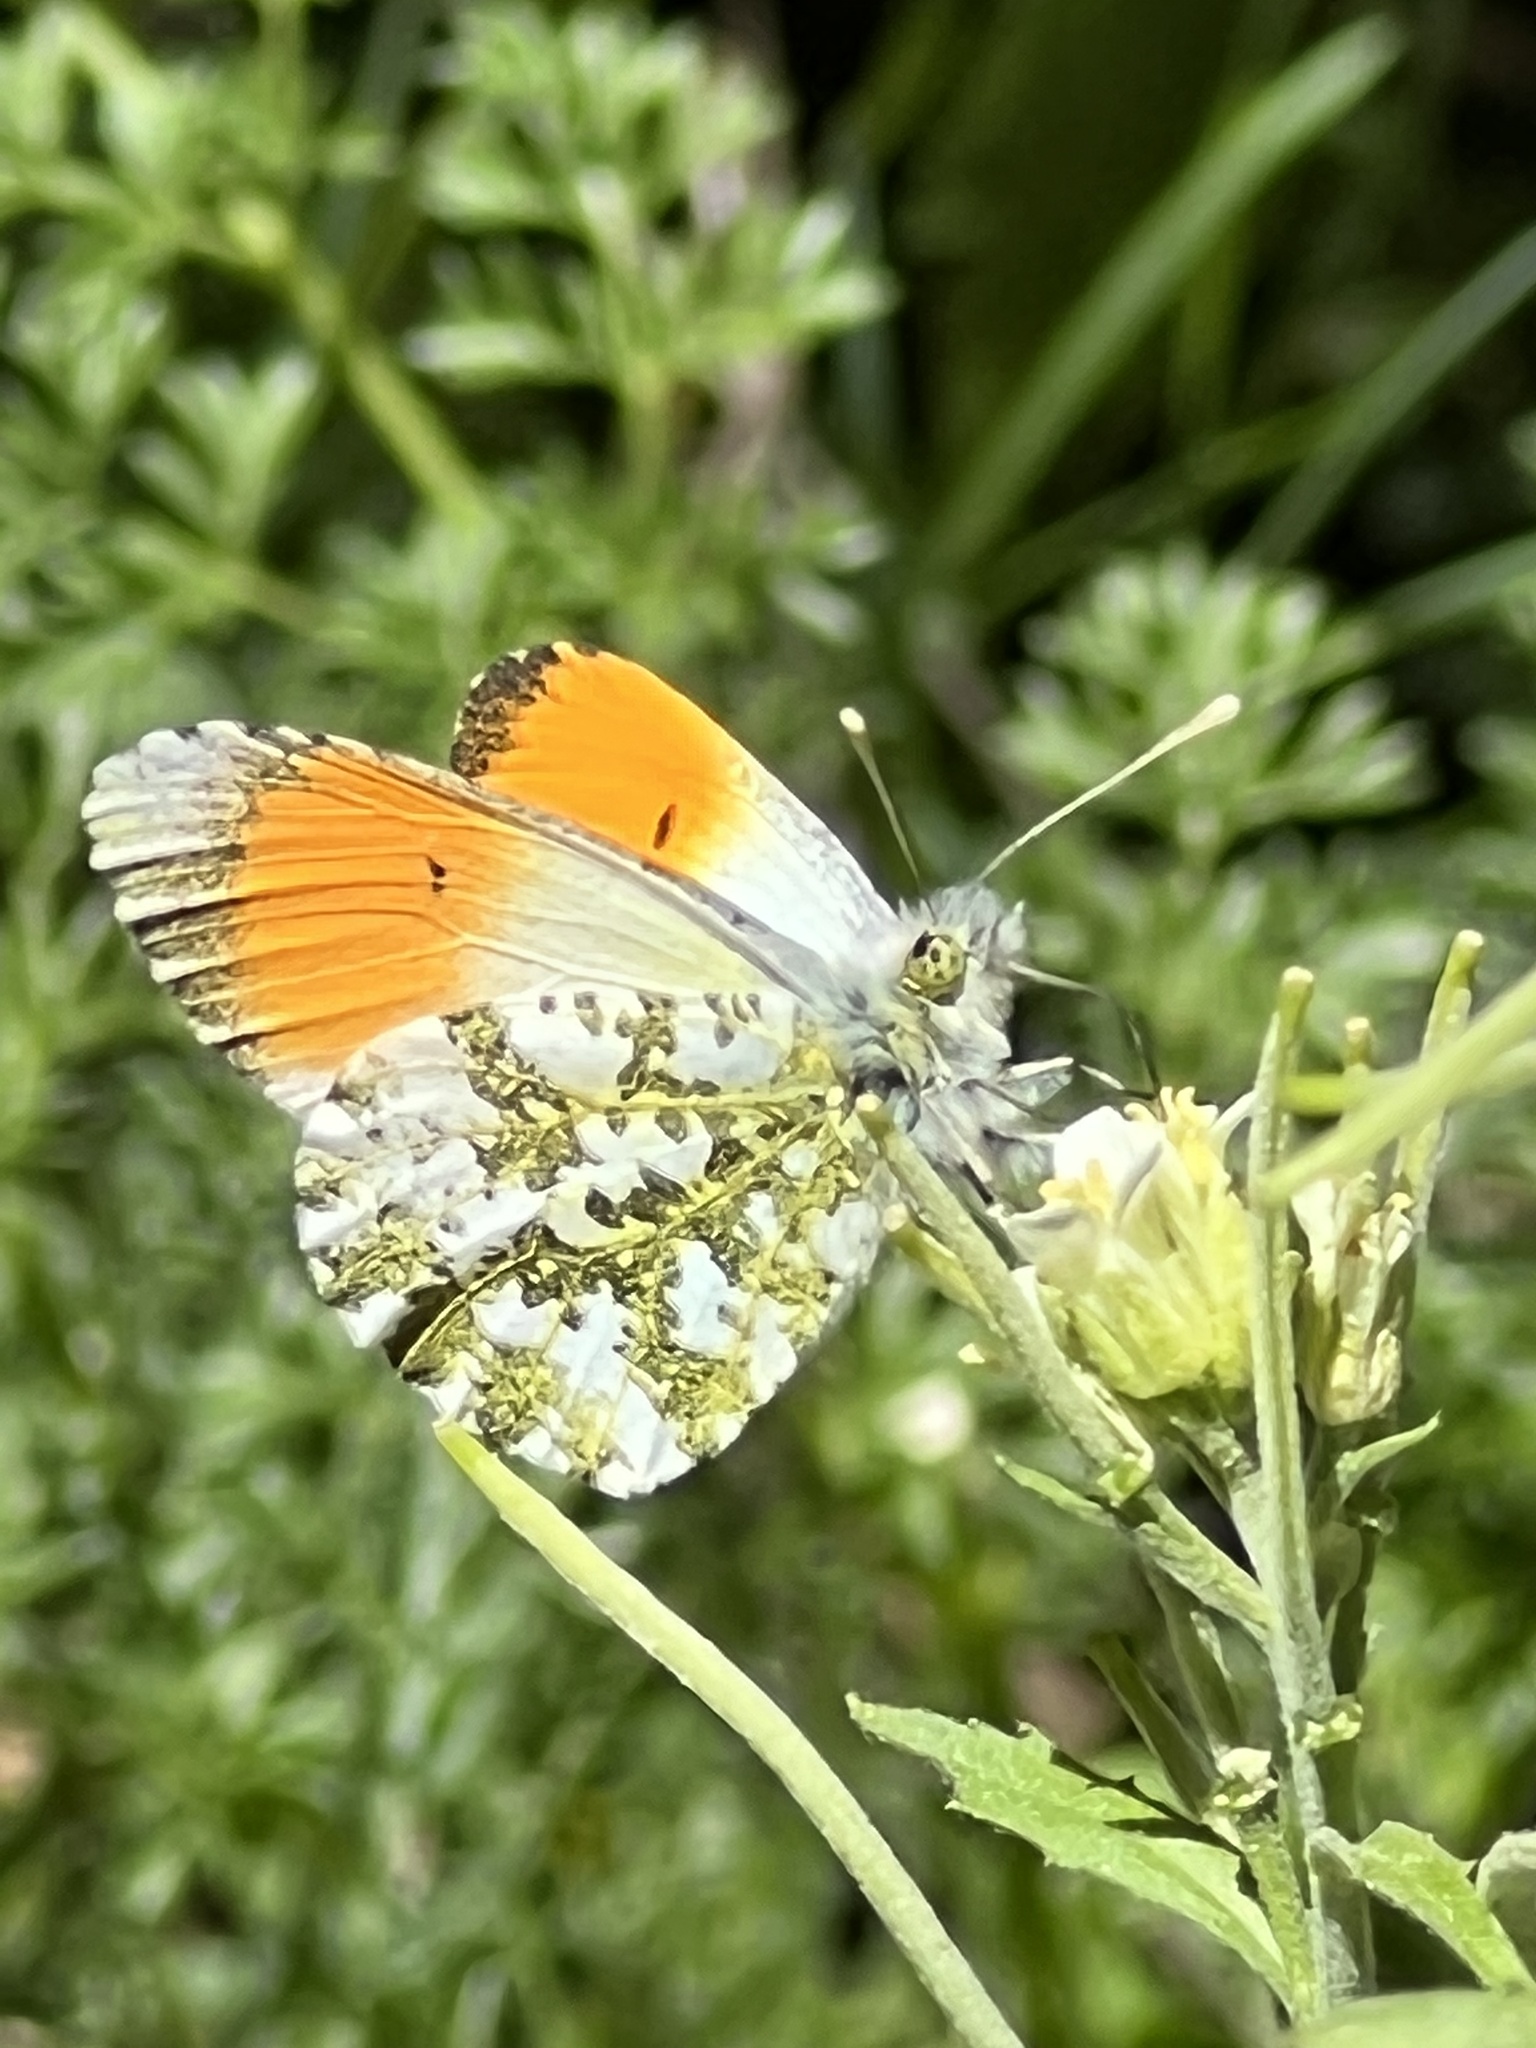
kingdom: Animalia
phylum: Arthropoda
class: Insecta
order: Lepidoptera
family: Pieridae
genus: Anthocharis
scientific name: Anthocharis cardamines
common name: Orange-tip
